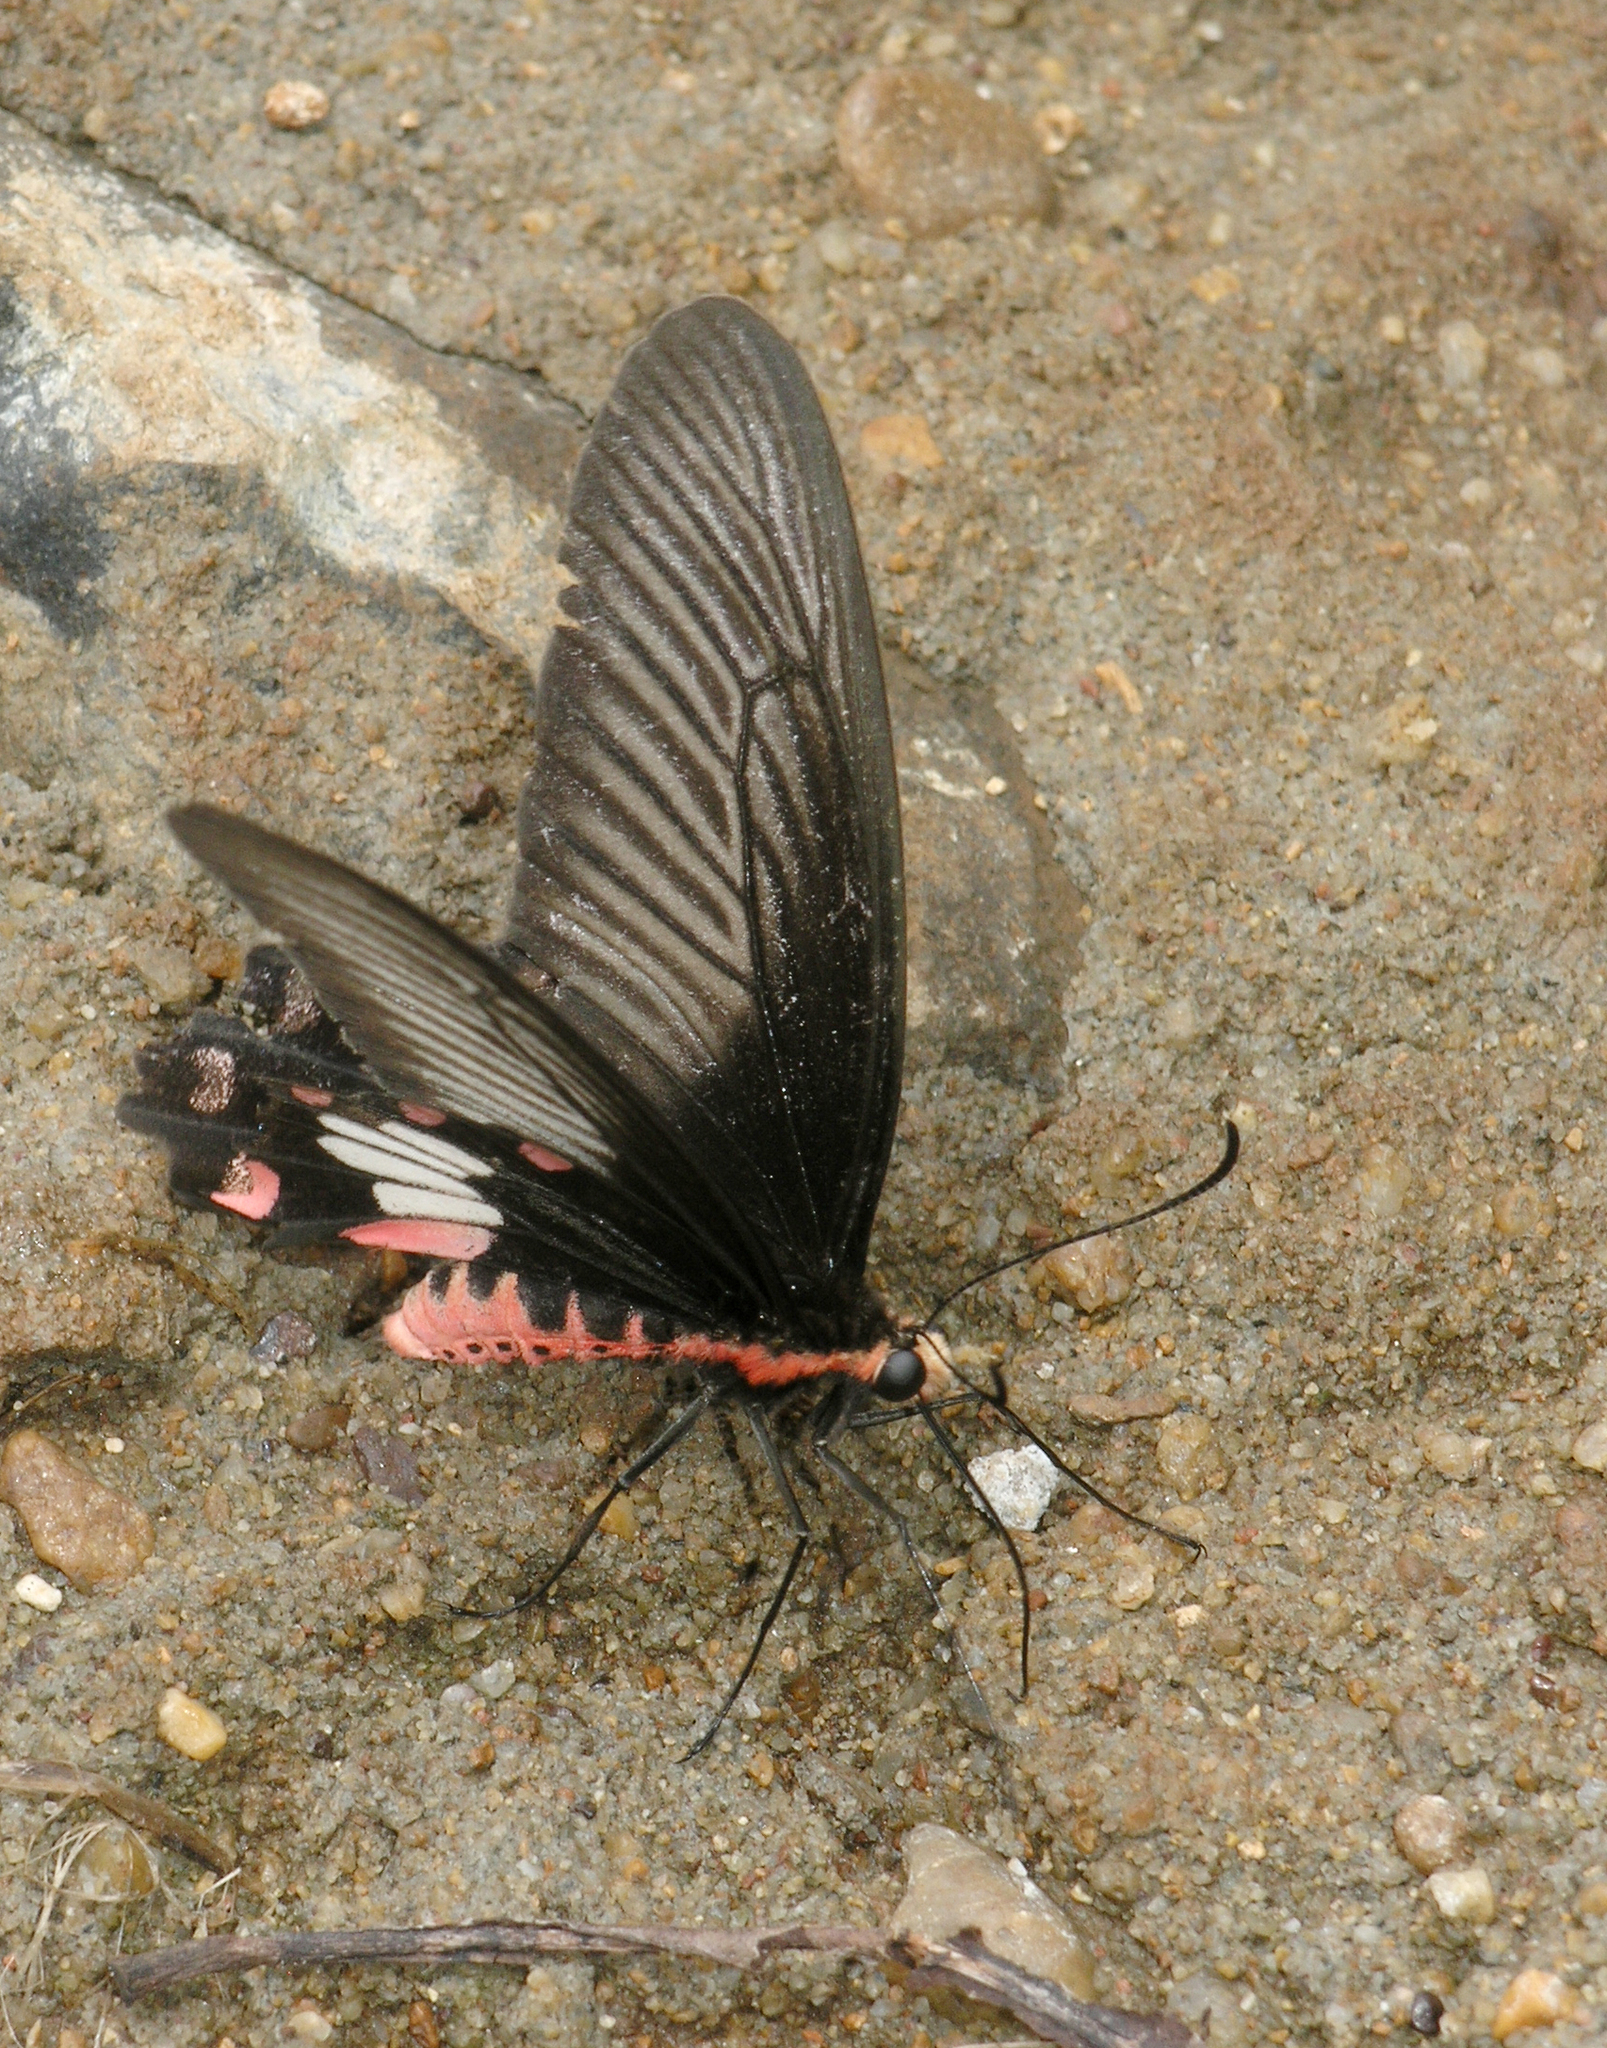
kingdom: Animalia
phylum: Arthropoda
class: Insecta
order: Lepidoptera
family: Papilionidae
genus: Pachliopta
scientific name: Pachliopta aristolochiae
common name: Common rose
